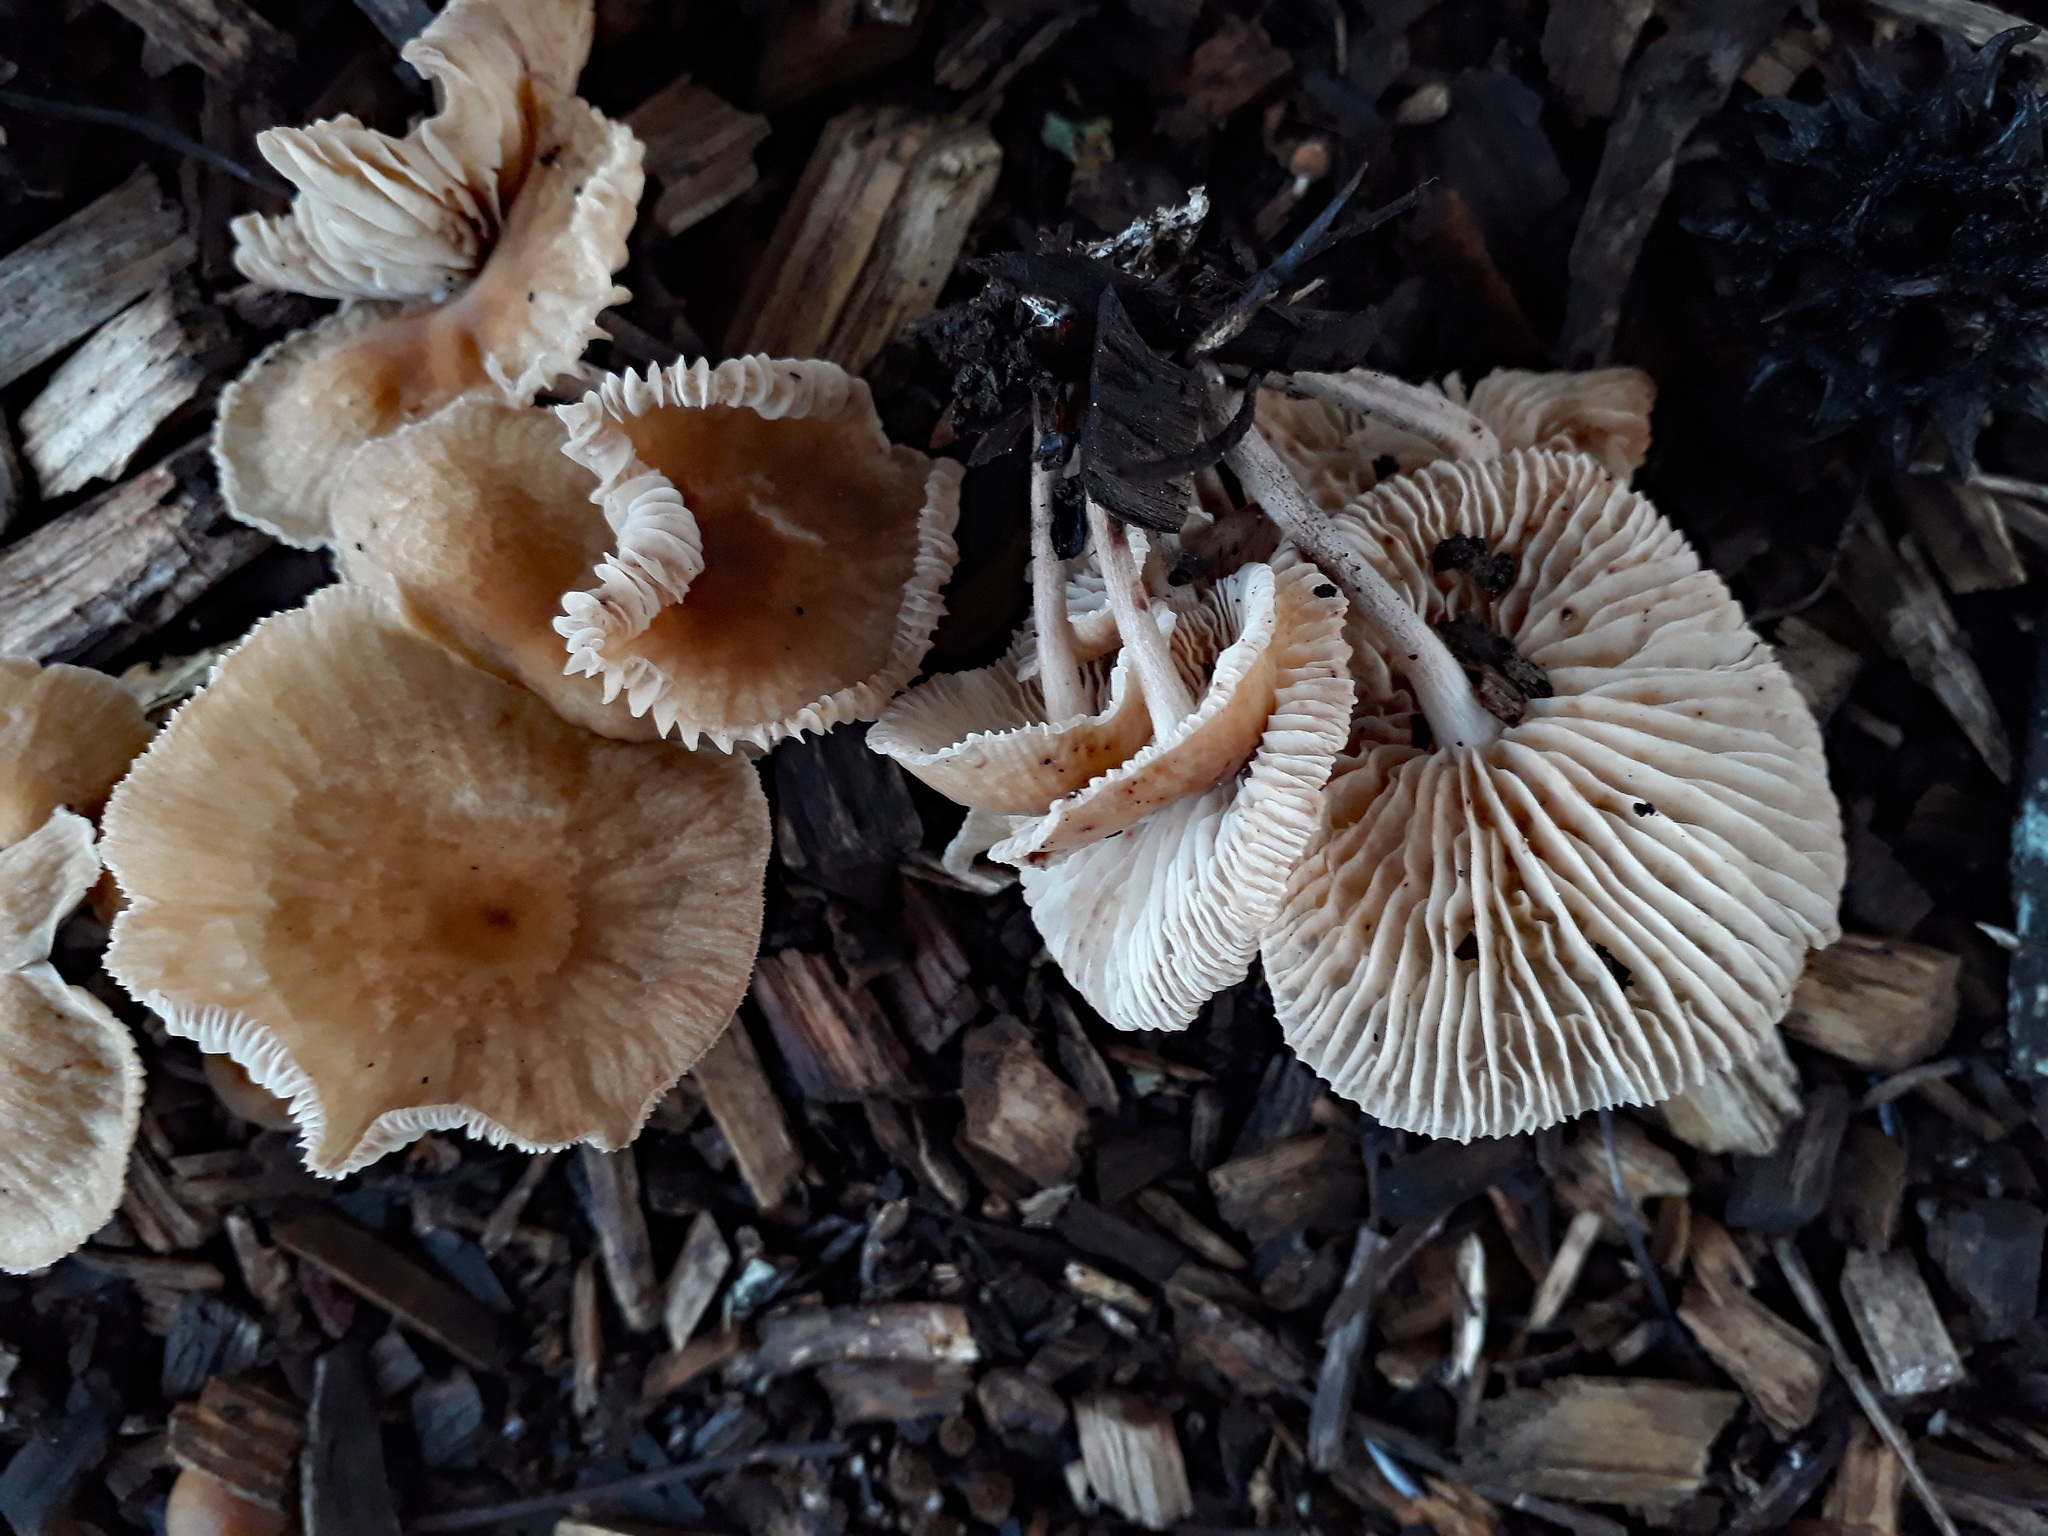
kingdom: Fungi
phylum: Basidiomycota
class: Agaricomycetes
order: Agaricales
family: Omphalotaceae
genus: Collybiopsis
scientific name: Collybiopsis subpruinosa
